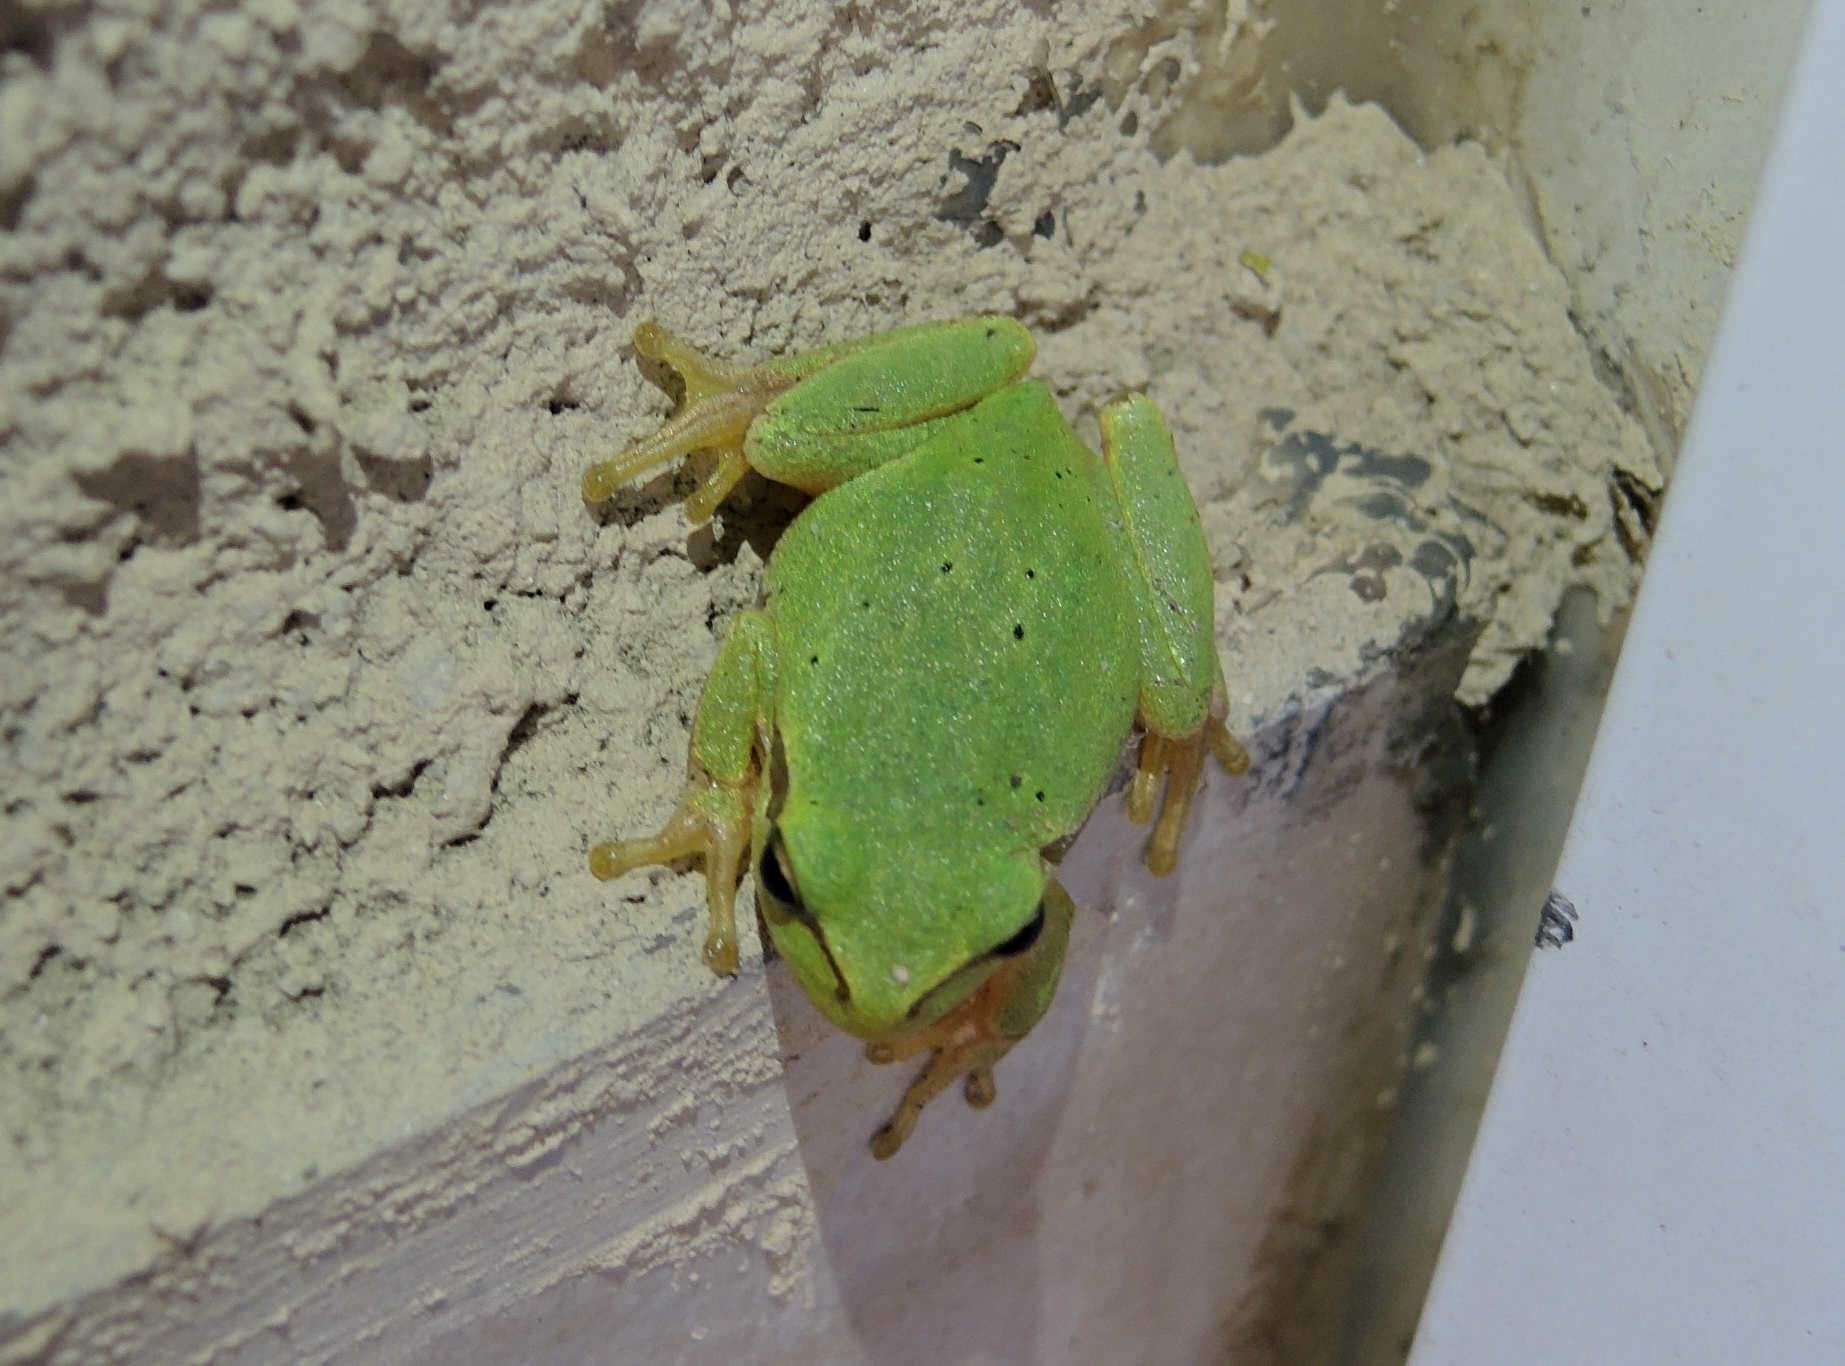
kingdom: Animalia
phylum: Chordata
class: Amphibia
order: Anura
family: Hylidae
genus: Hyla
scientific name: Hyla orientalis
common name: Caucasian treefrog
